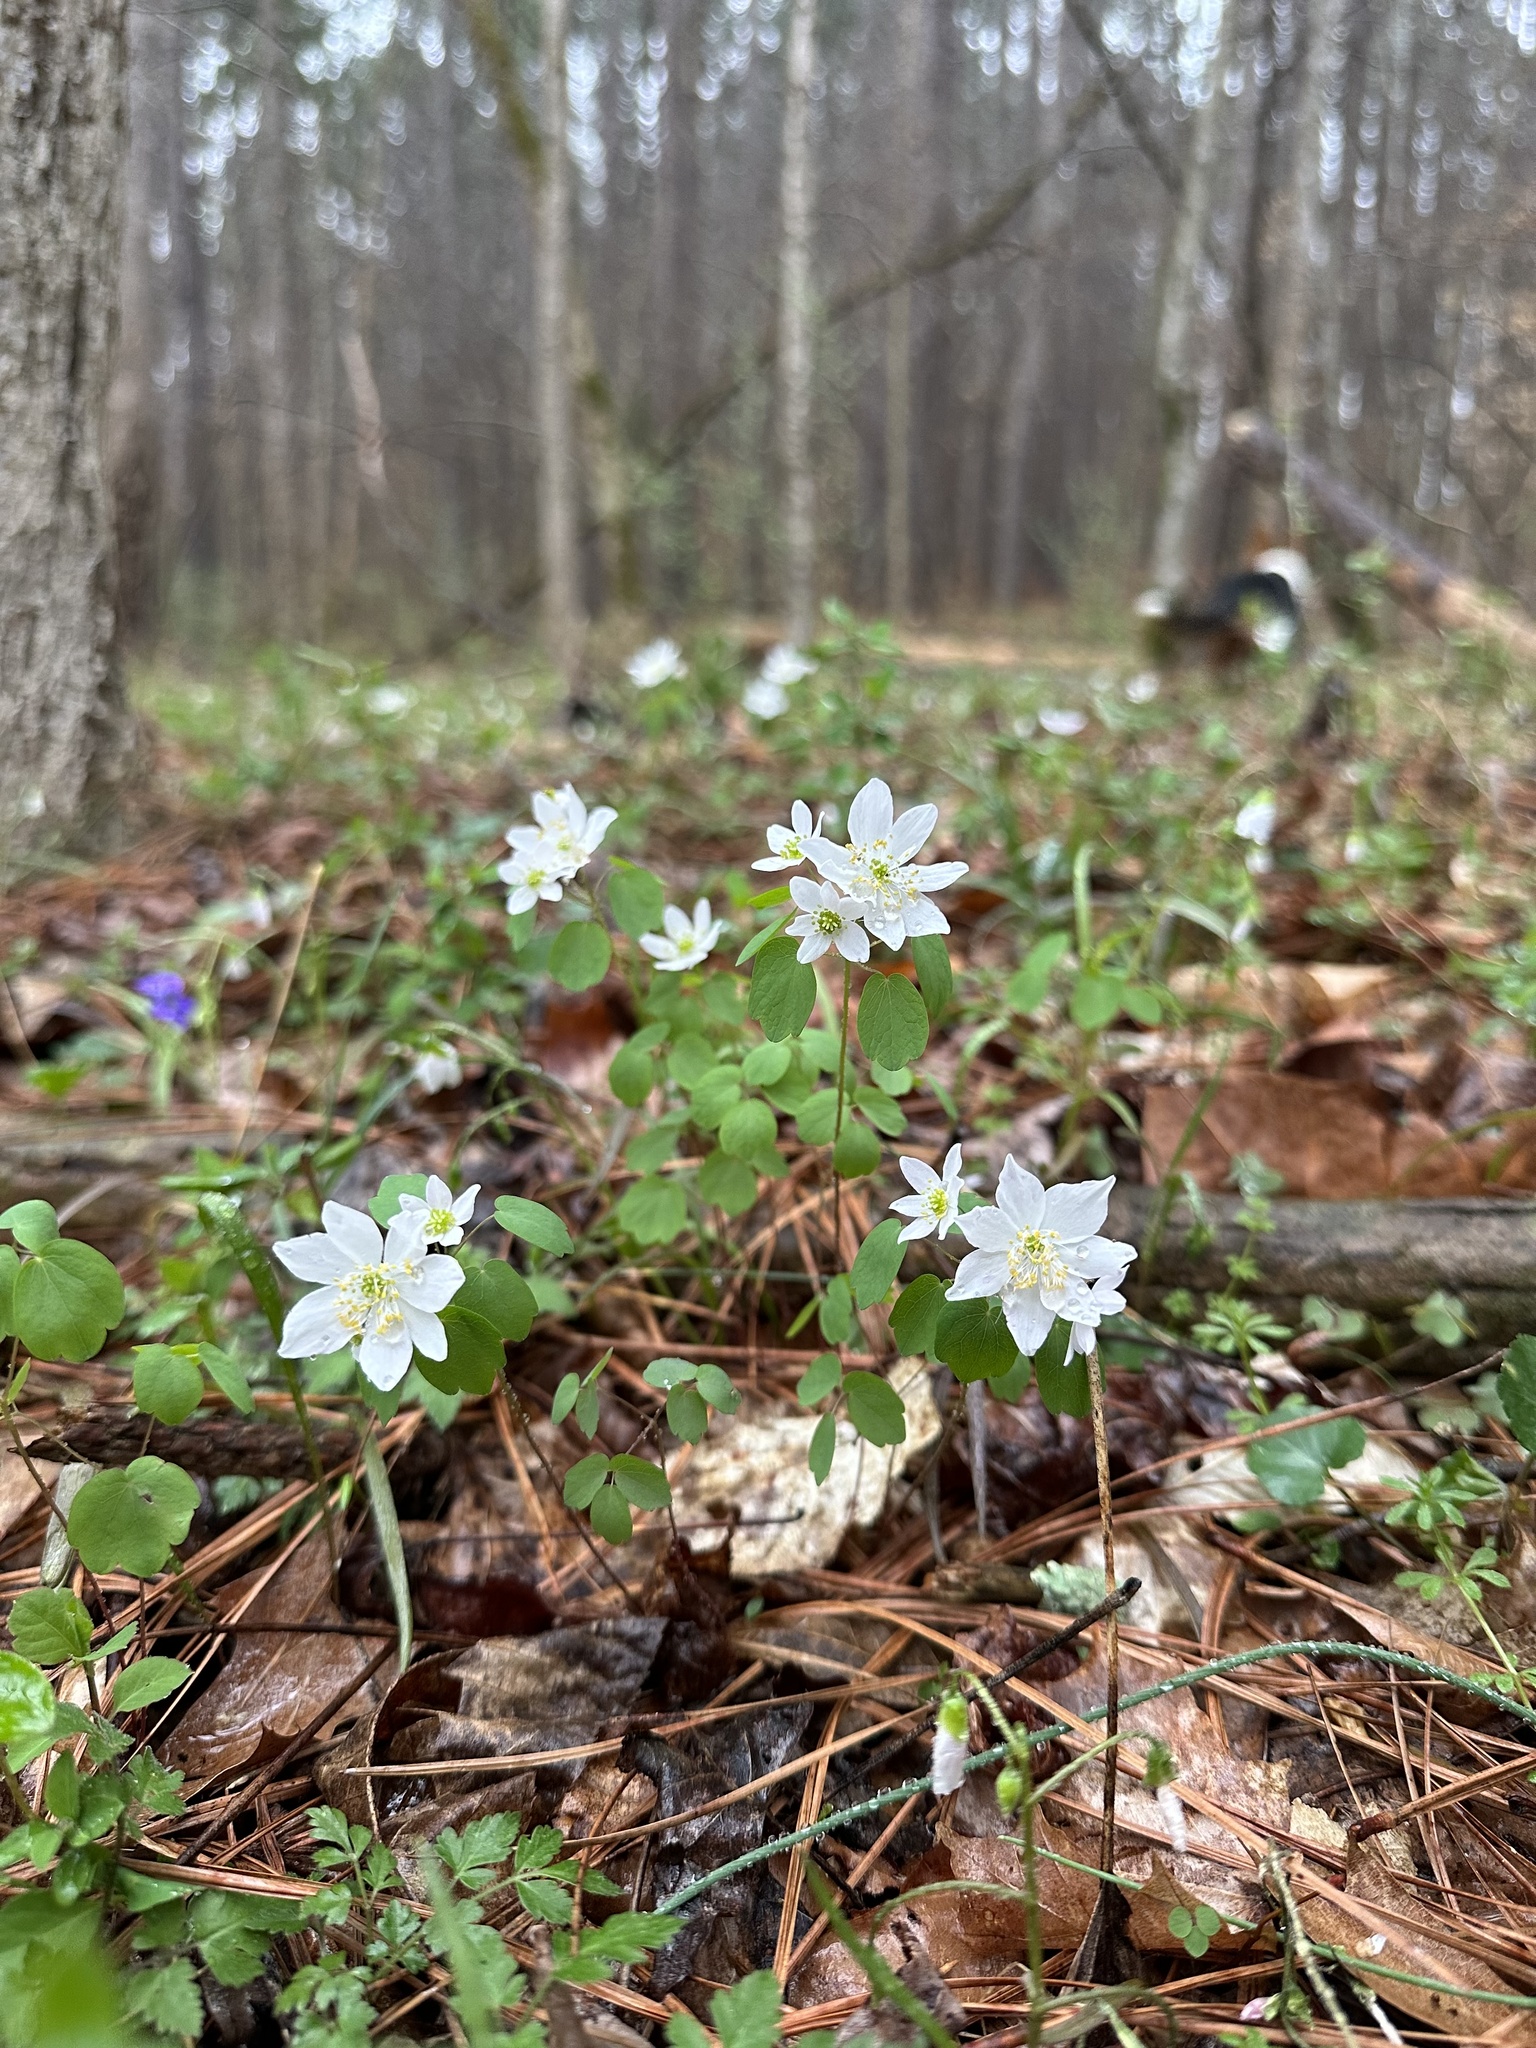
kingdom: Plantae
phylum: Tracheophyta
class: Magnoliopsida
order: Ranunculales
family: Ranunculaceae
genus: Thalictrum
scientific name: Thalictrum thalictroides
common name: Rue-anemone
